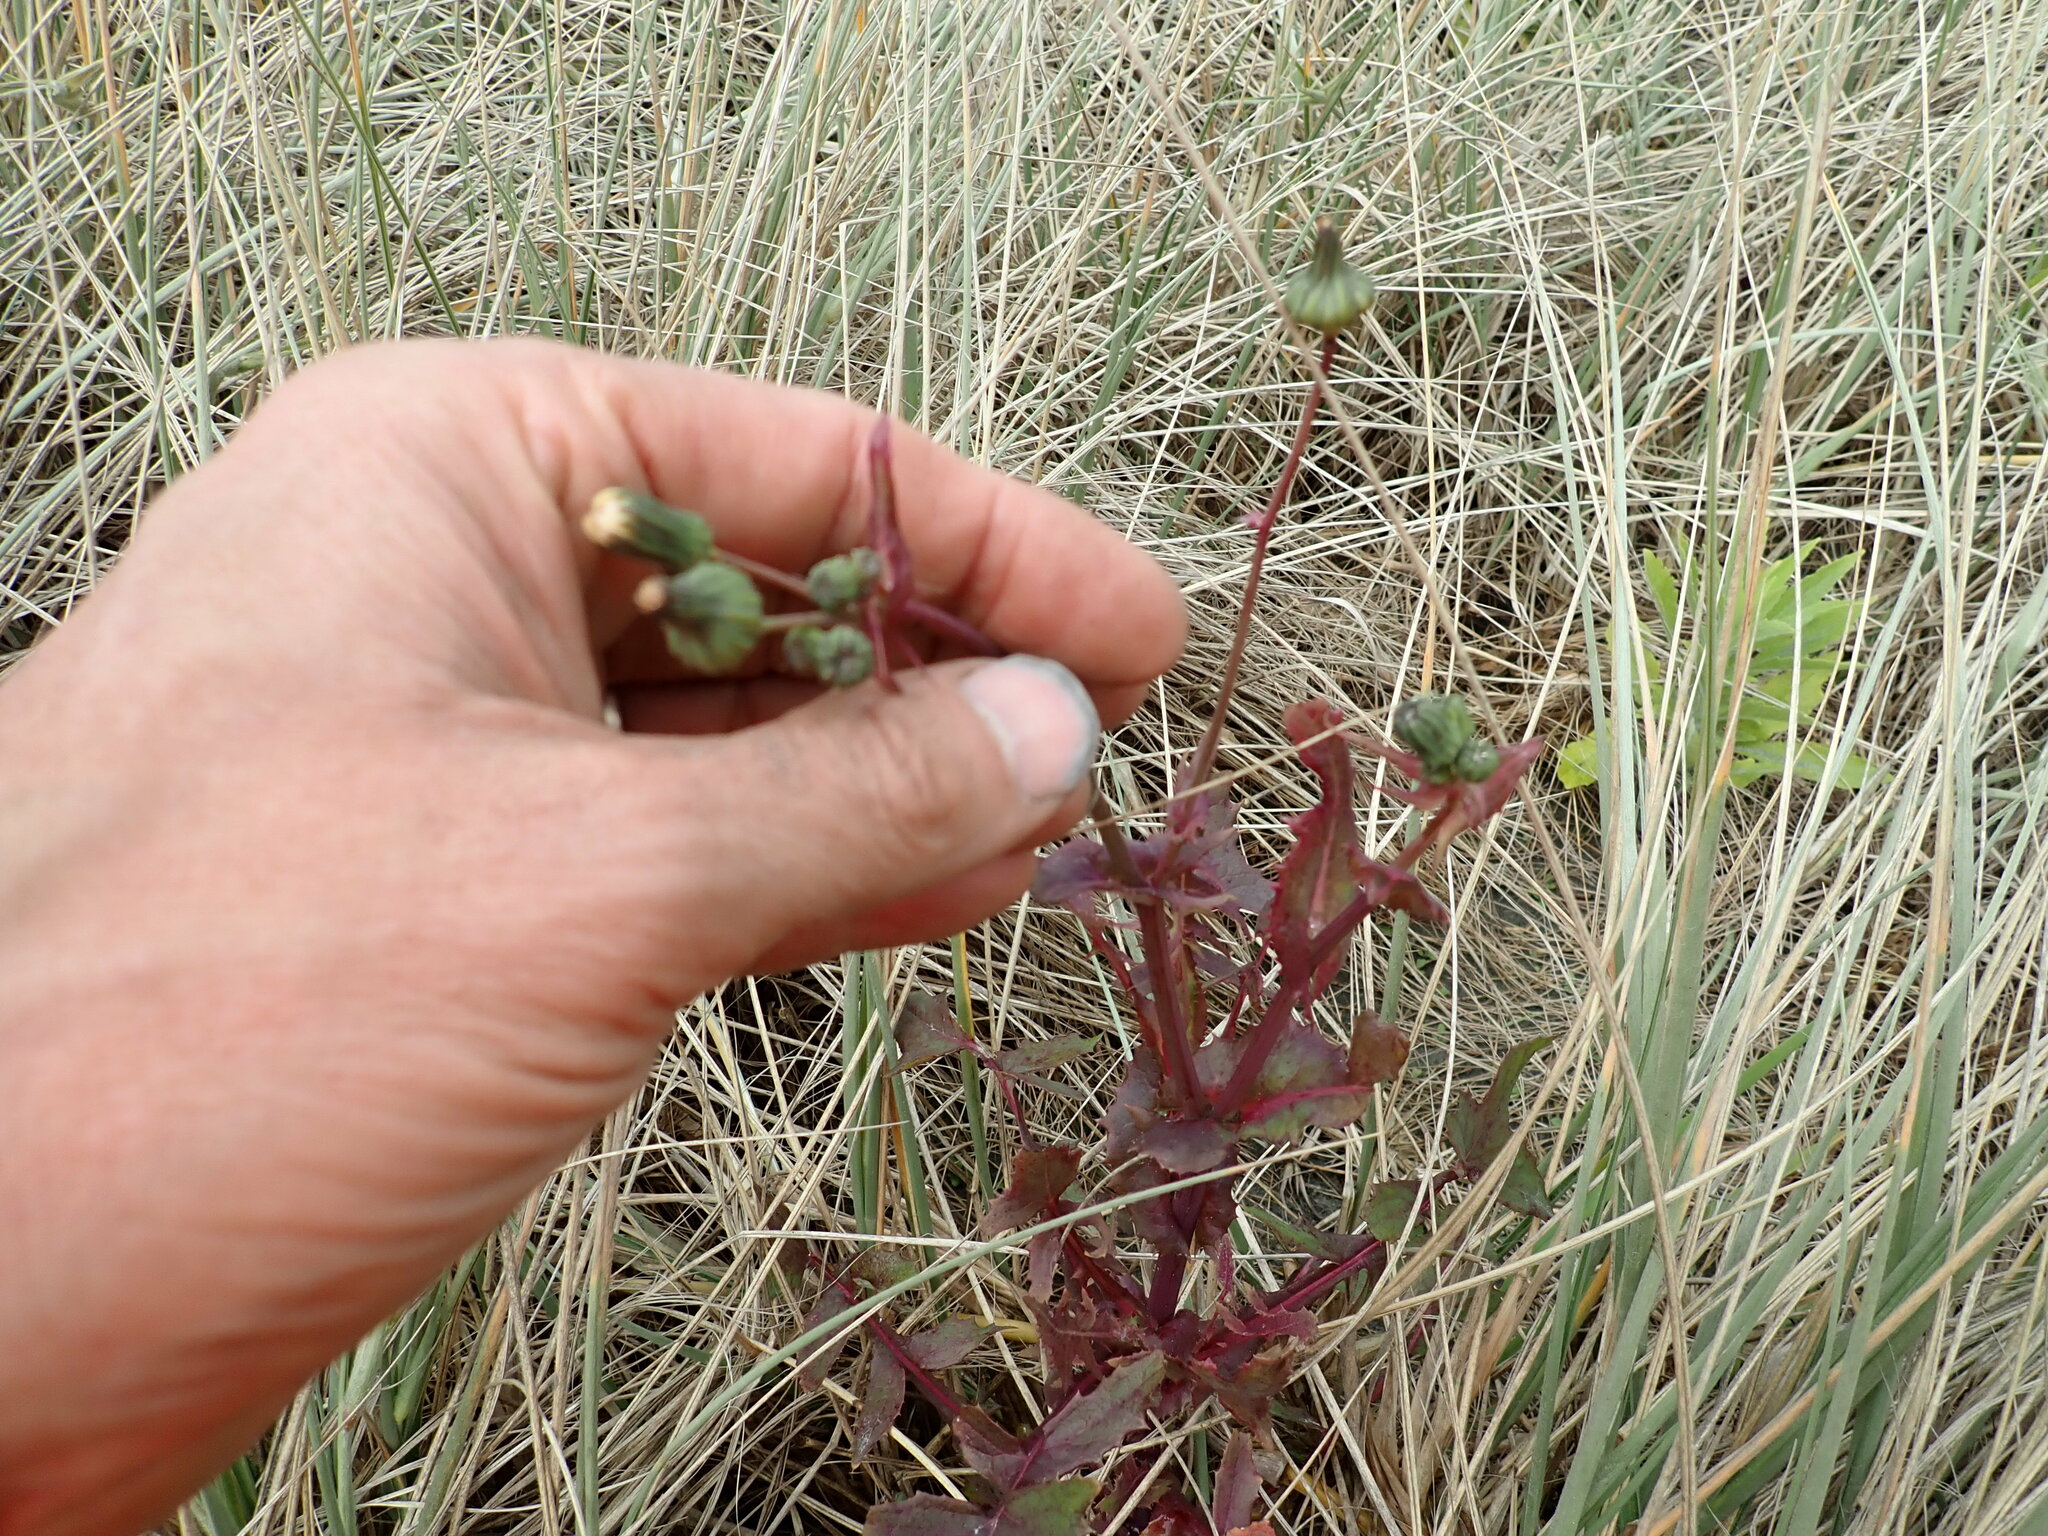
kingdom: Plantae
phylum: Tracheophyta
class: Magnoliopsida
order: Asterales
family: Asteraceae
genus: Sonchus
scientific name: Sonchus oleraceus
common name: Common sowthistle
